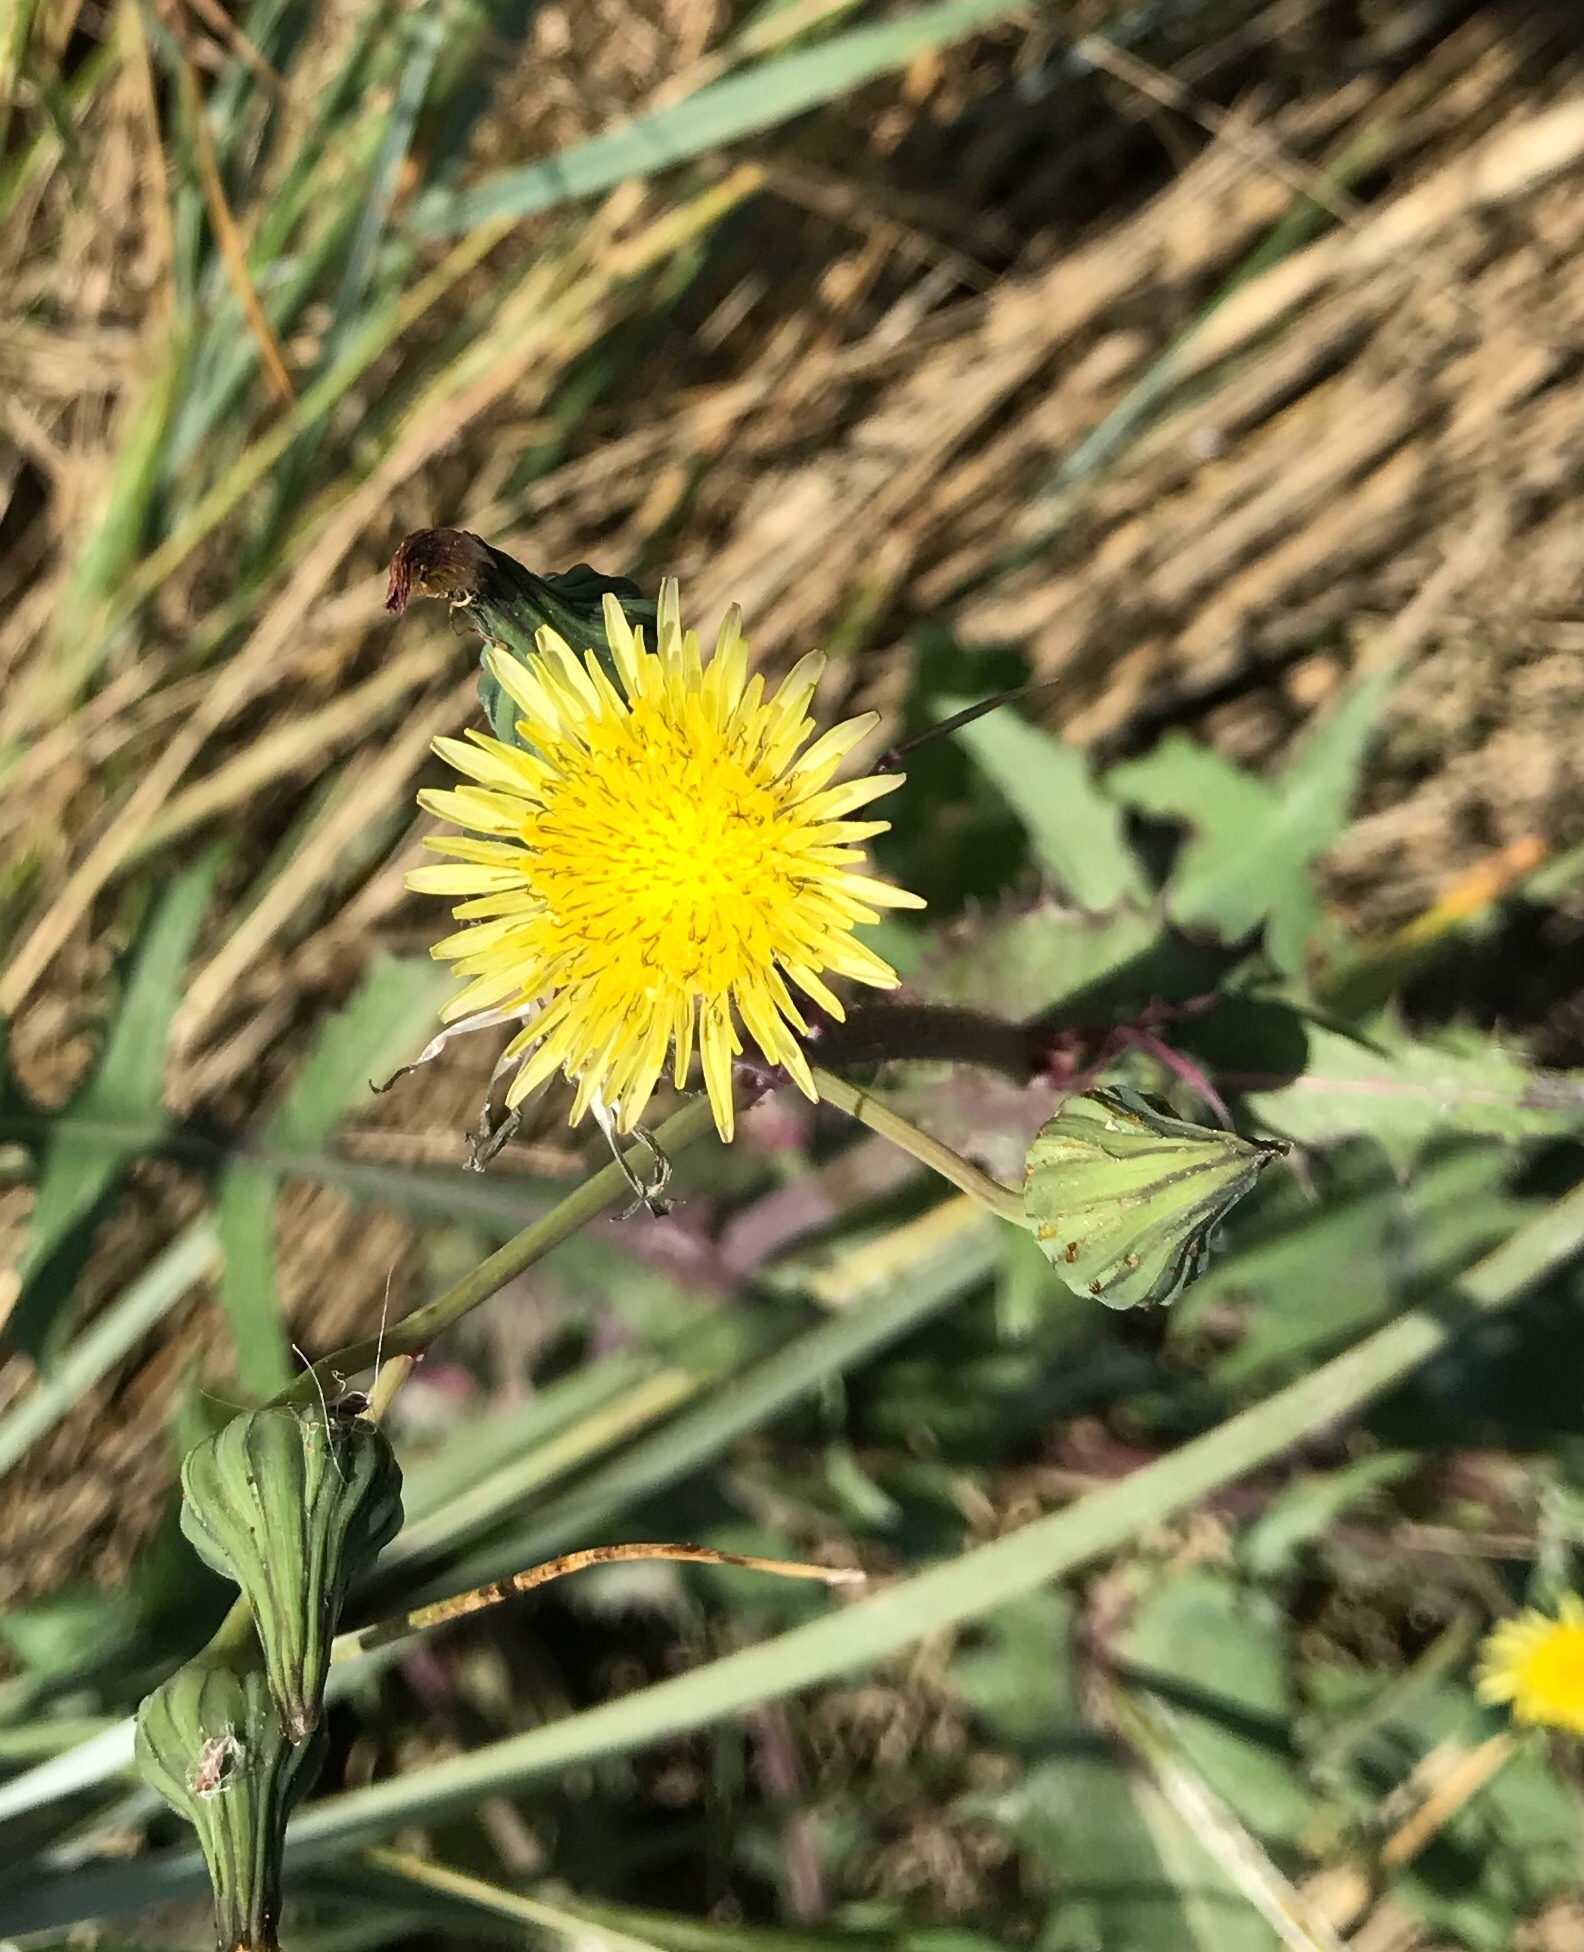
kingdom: Plantae
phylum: Tracheophyta
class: Magnoliopsida
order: Asterales
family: Asteraceae
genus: Sonchus
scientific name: Sonchus oleraceus
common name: Common sowthistle
